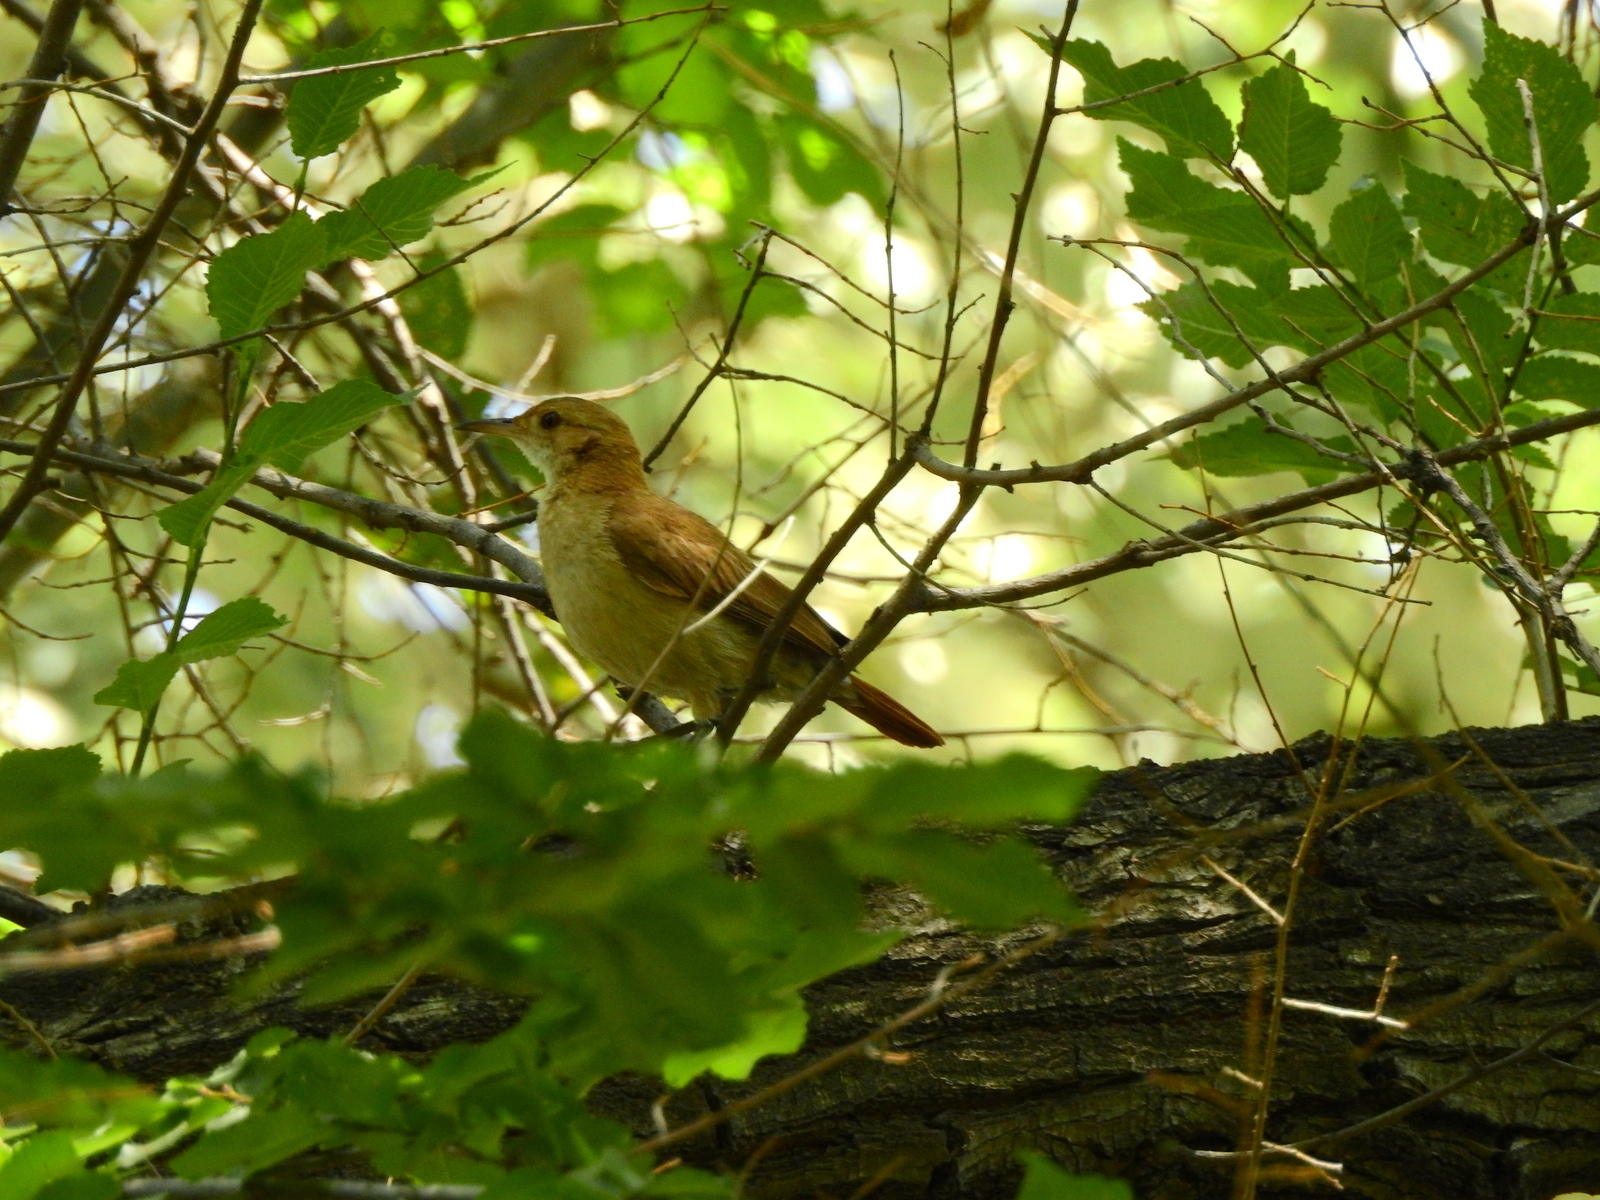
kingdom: Animalia
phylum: Chordata
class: Aves
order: Passeriformes
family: Furnariidae
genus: Furnarius
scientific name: Furnarius rufus
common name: Rufous hornero
